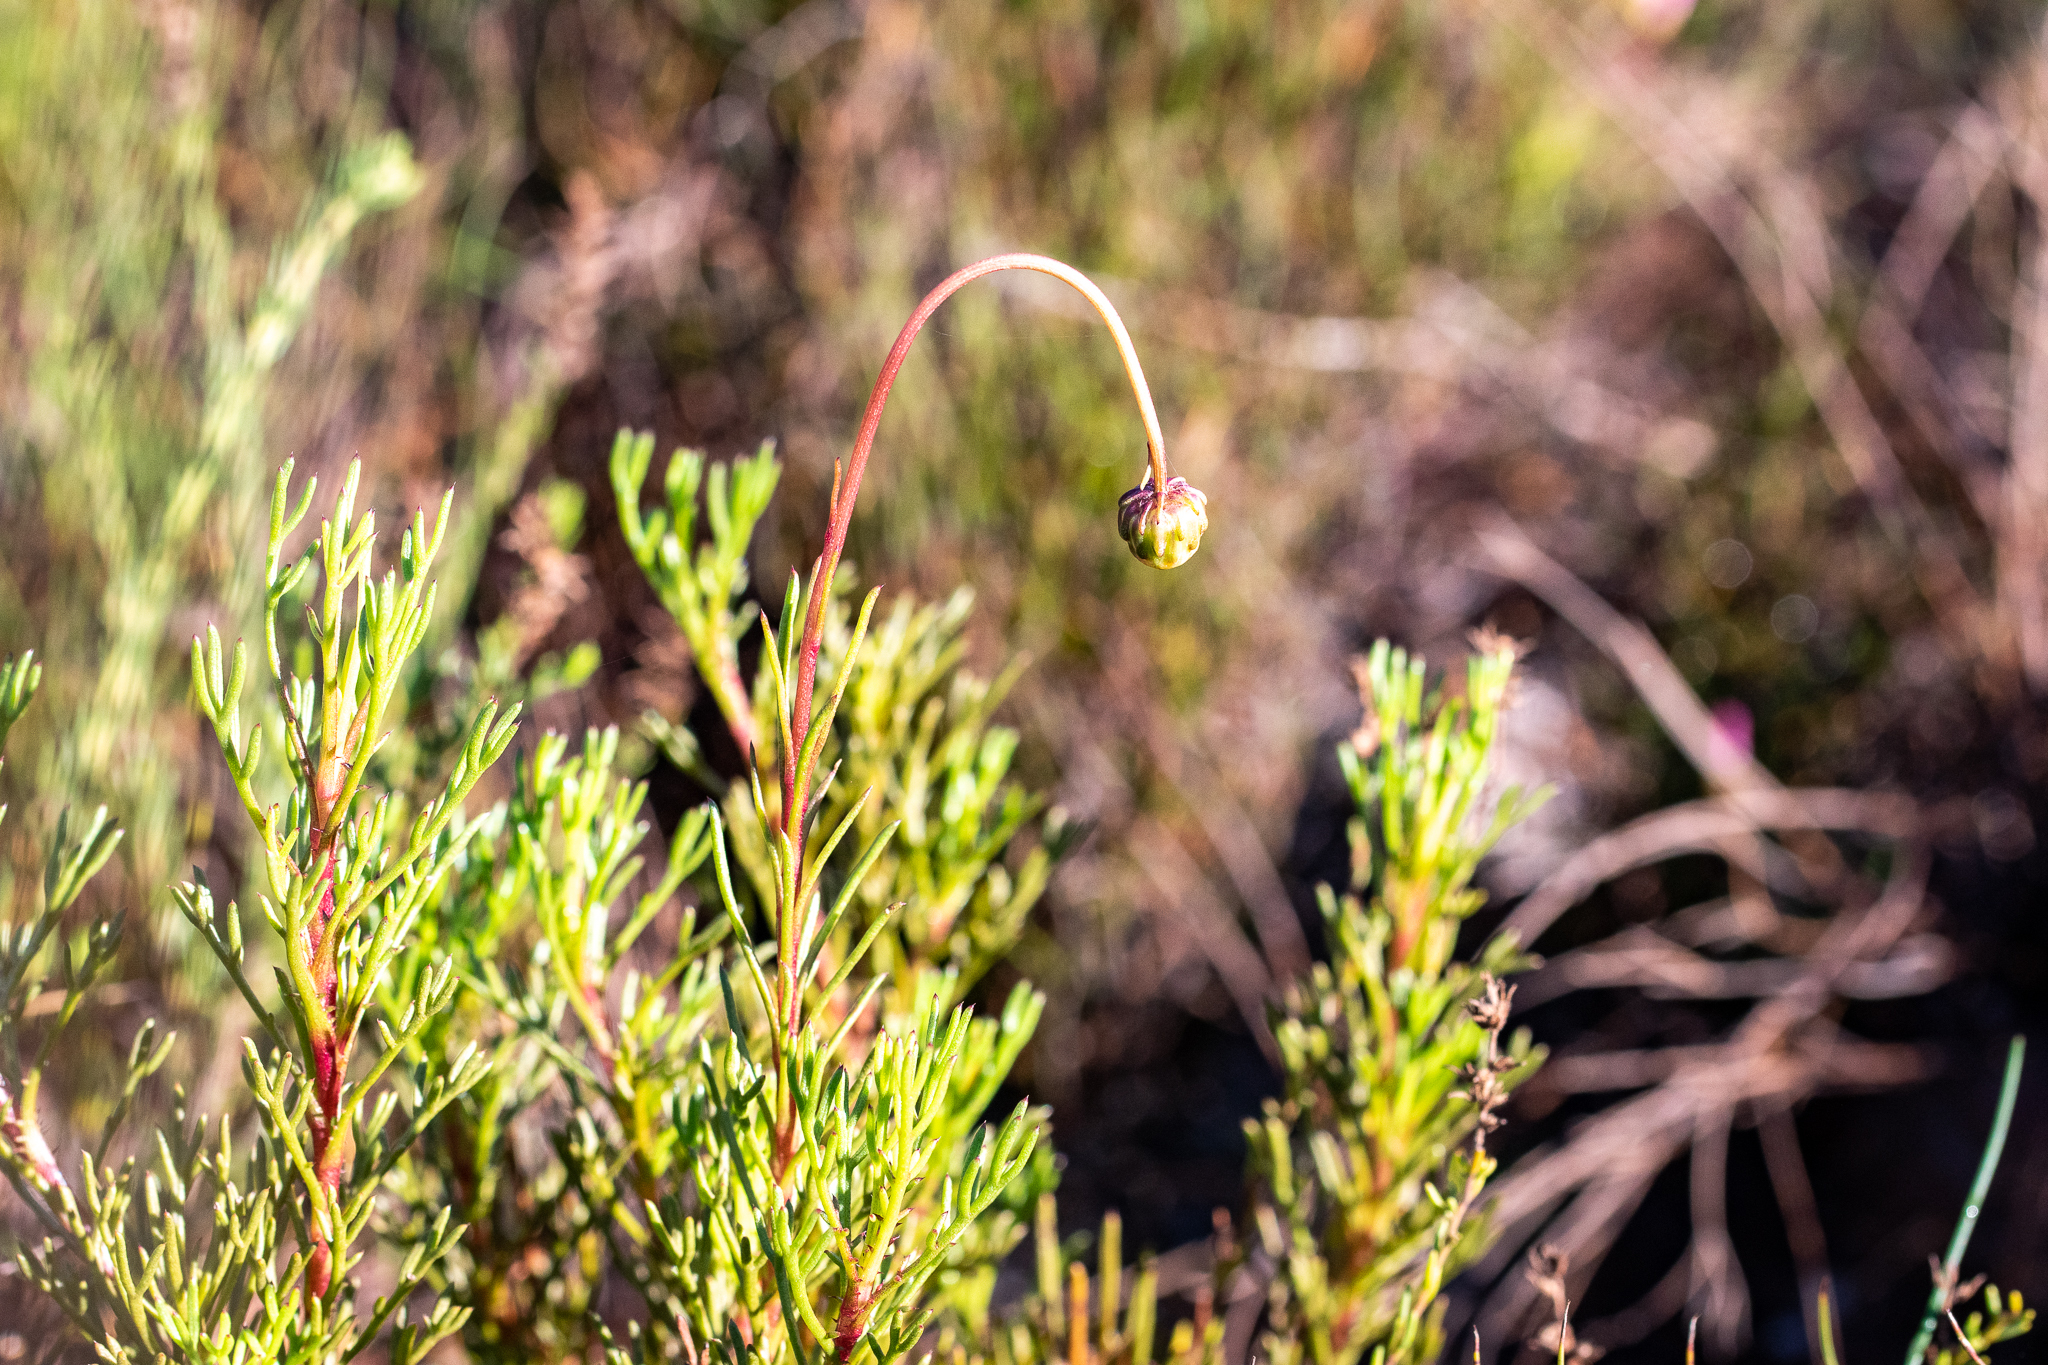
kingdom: Plantae
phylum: Tracheophyta
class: Magnoliopsida
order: Asterales
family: Asteraceae
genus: Ursinia
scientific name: Ursinia paleacea
